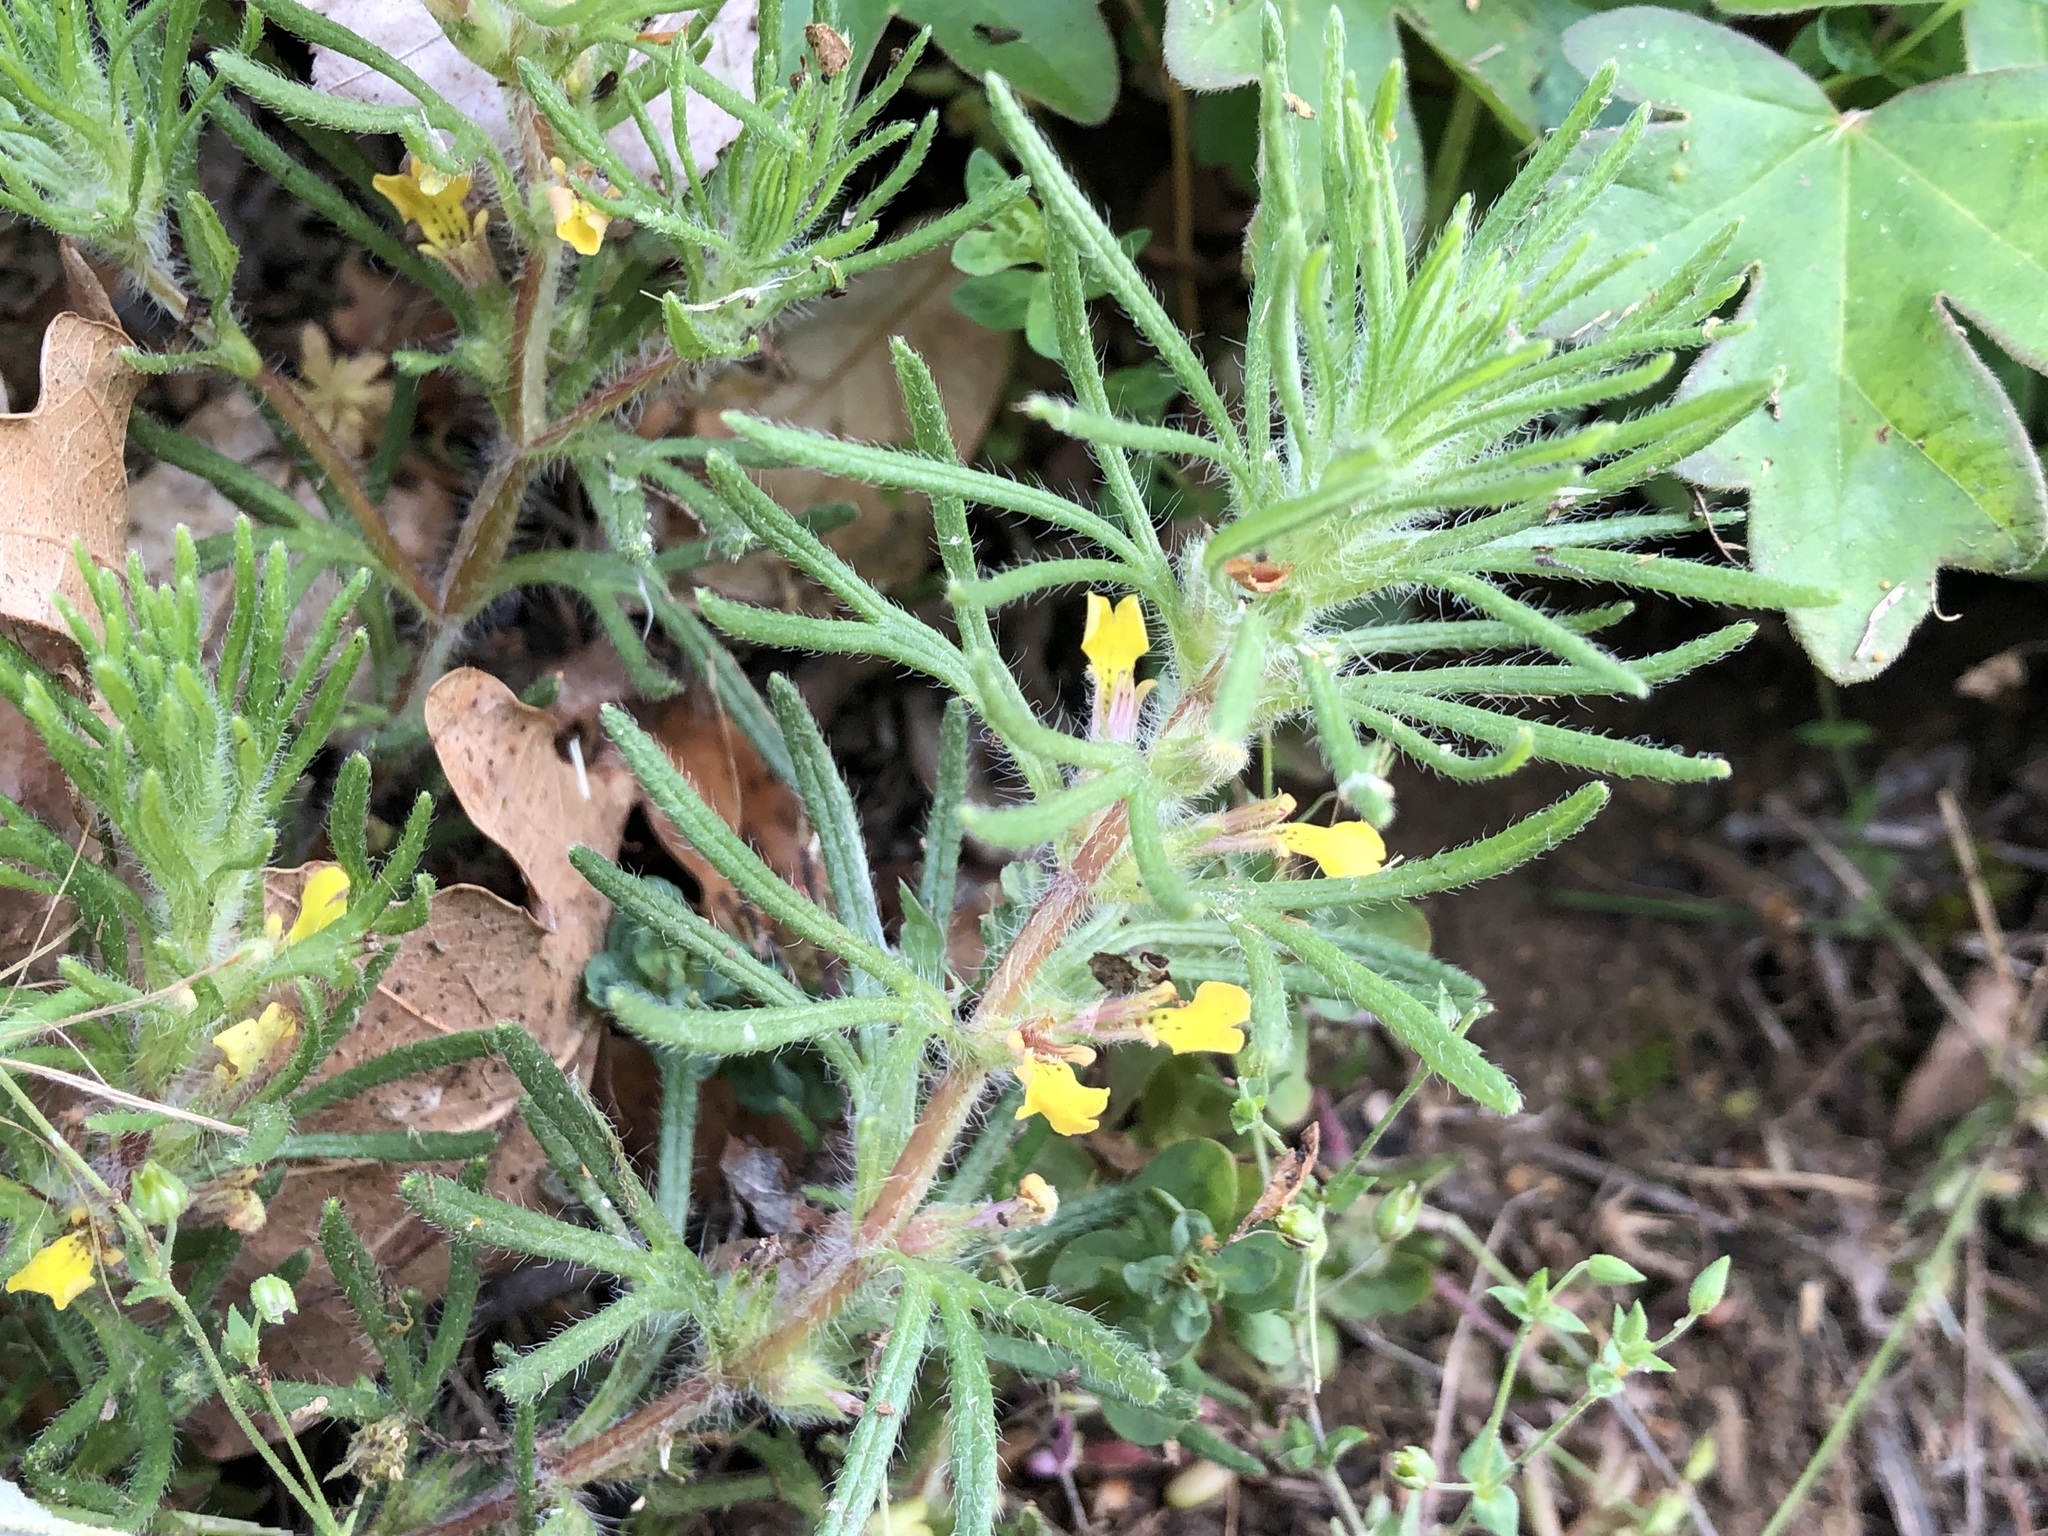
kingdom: Plantae
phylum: Tracheophyta
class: Magnoliopsida
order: Lamiales
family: Lamiaceae
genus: Ajuga
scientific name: Ajuga chamaepitys
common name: Ground-pine
